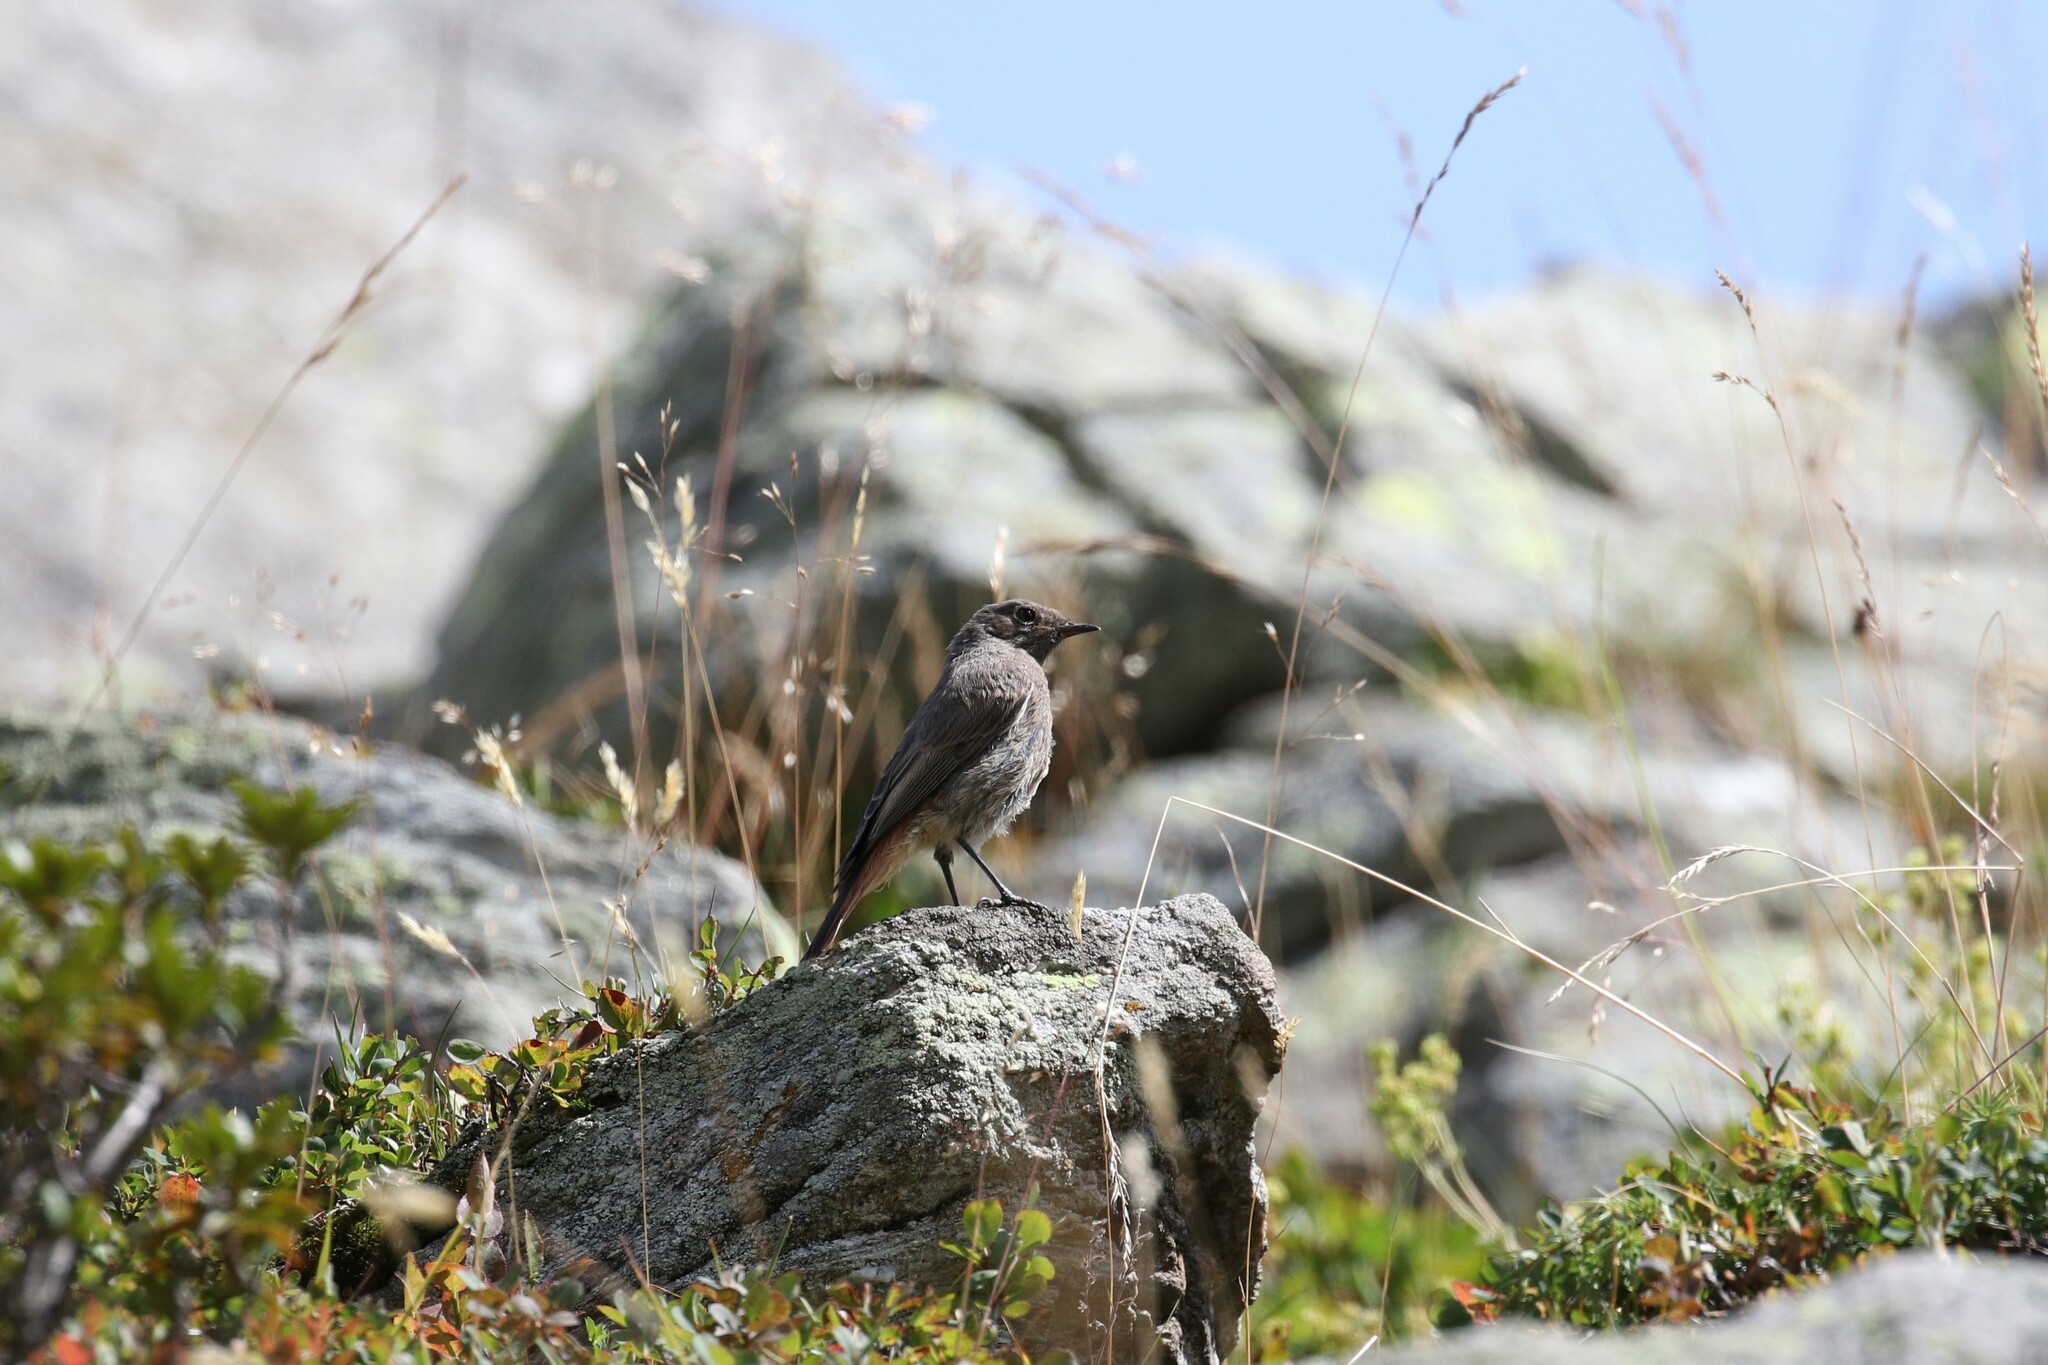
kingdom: Animalia
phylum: Chordata
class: Aves
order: Passeriformes
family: Muscicapidae
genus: Phoenicurus
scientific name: Phoenicurus ochruros
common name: Black redstart
